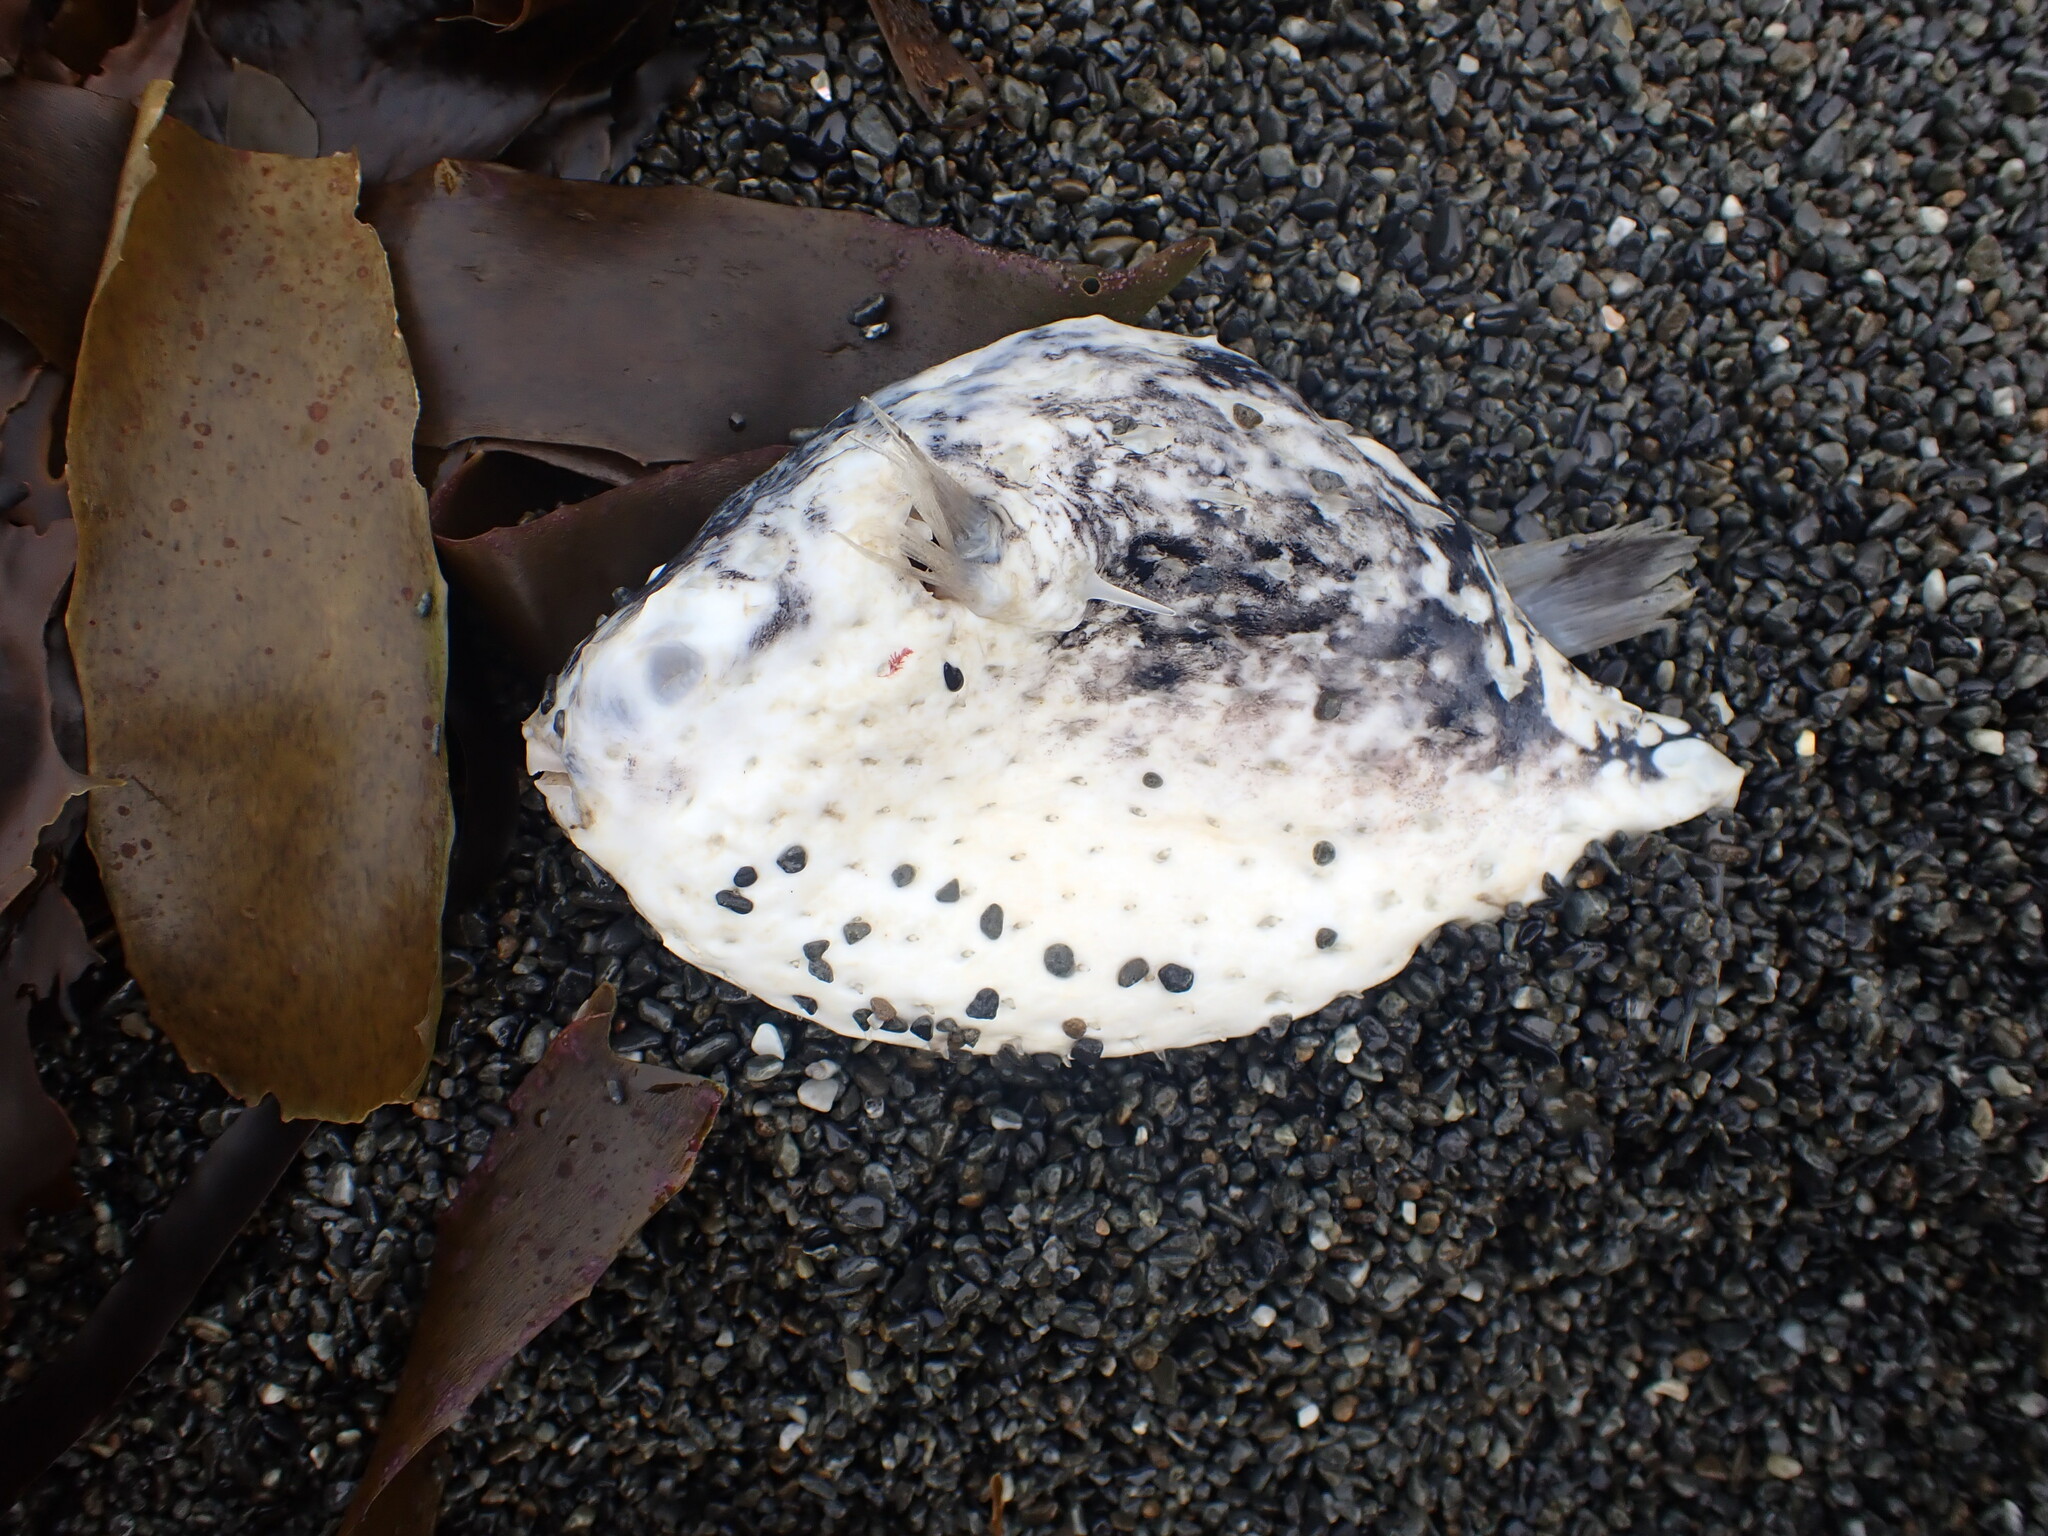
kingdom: Animalia
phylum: Chordata
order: Tetraodontiformes
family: Diodontidae
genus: Allomycterus
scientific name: Allomycterus pilatus
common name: No common name
